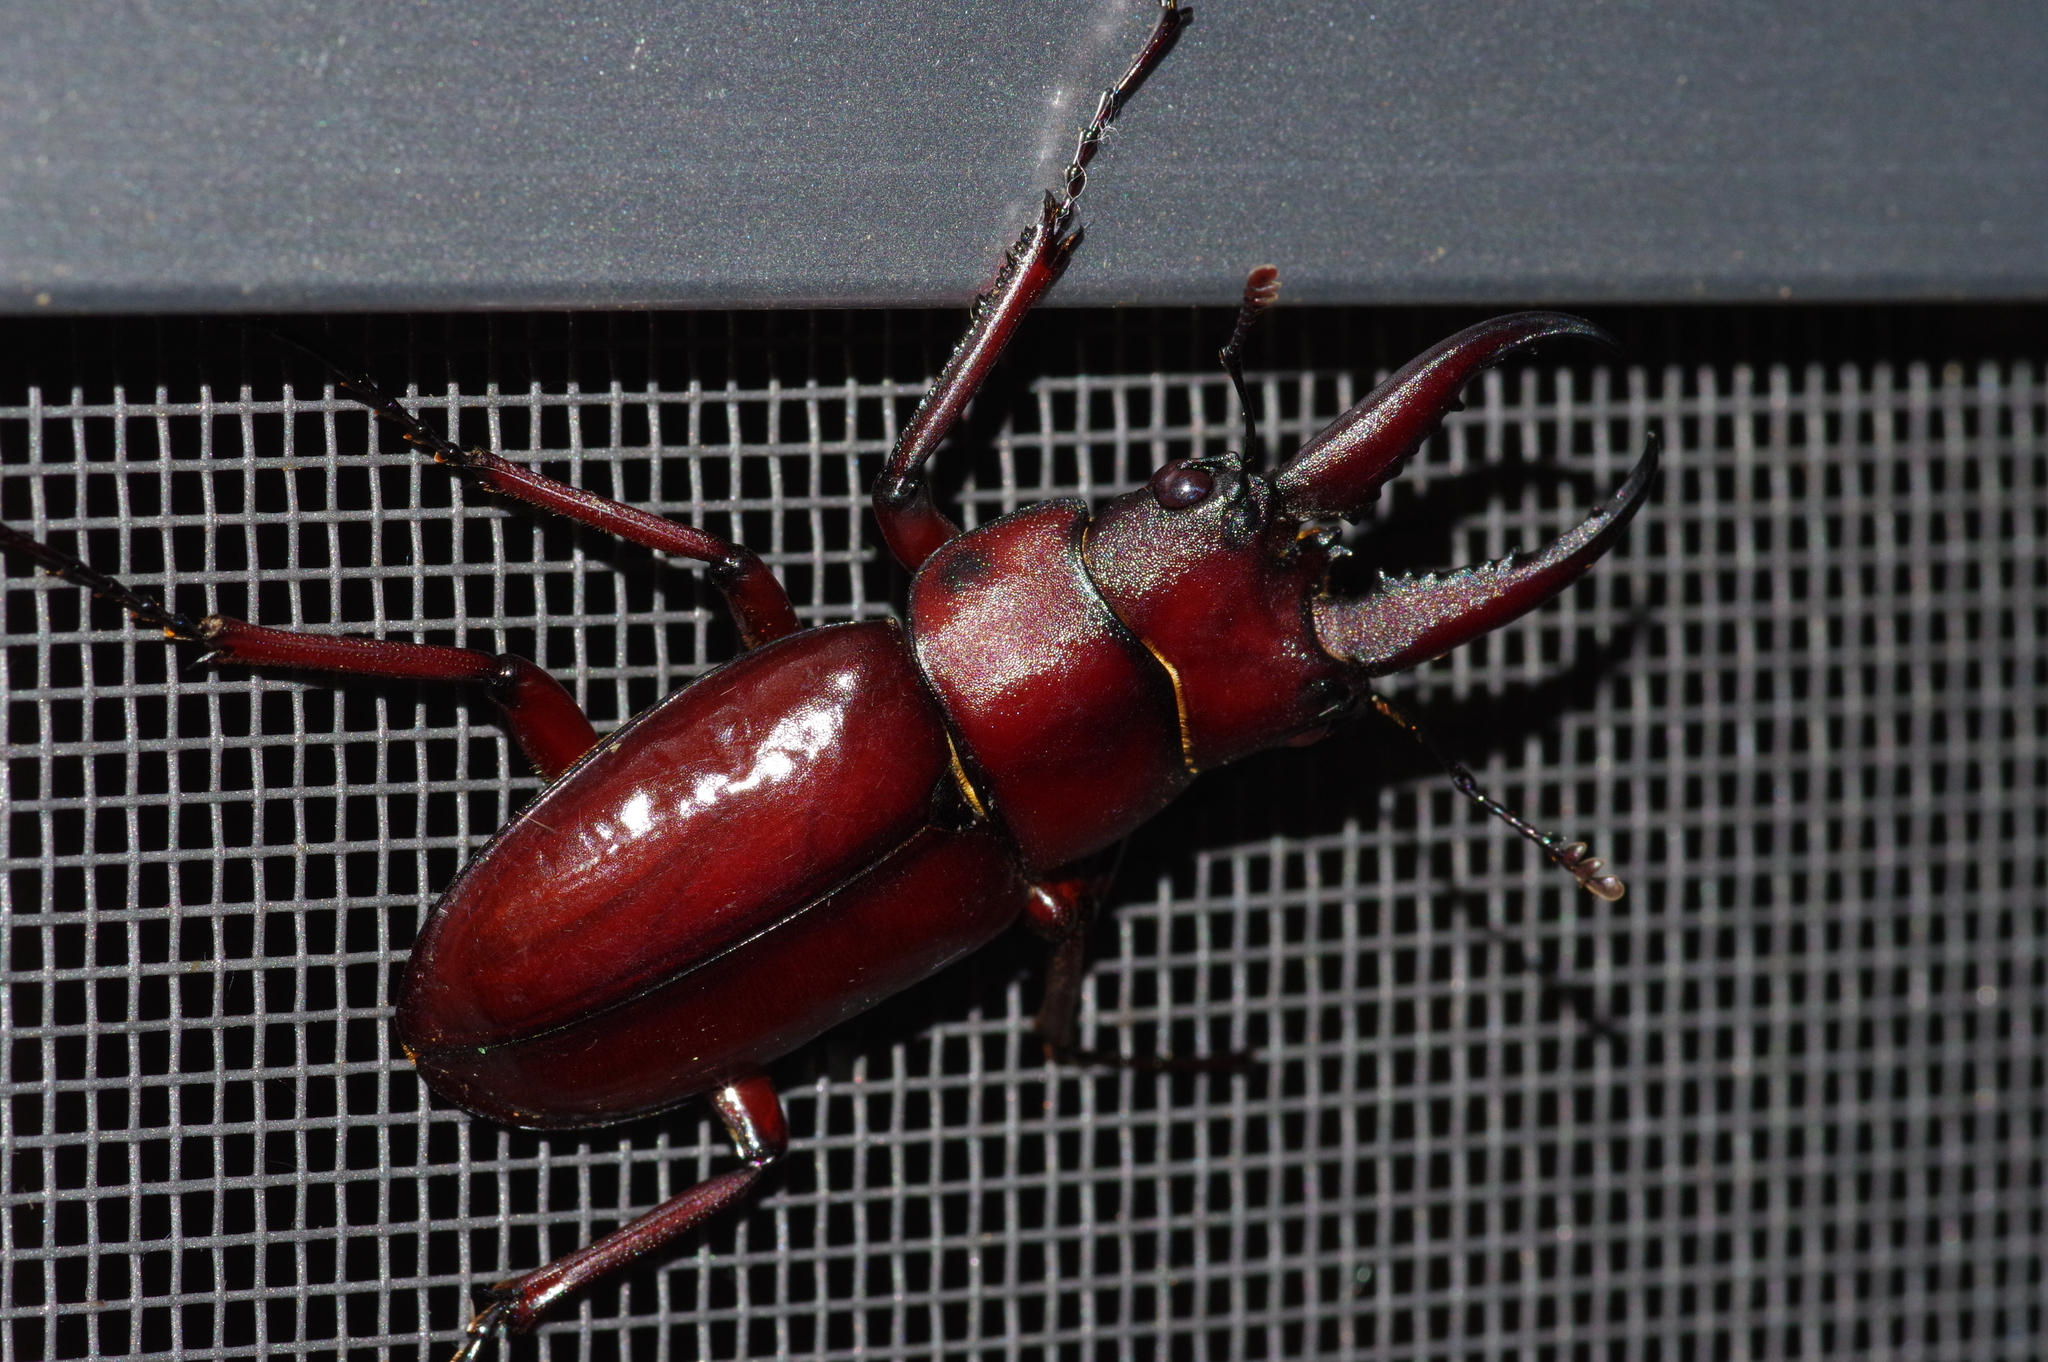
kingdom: Animalia
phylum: Arthropoda
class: Insecta
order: Coleoptera
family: Lucanidae
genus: Prosopocoilus
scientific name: Prosopocoilus dissimilis
